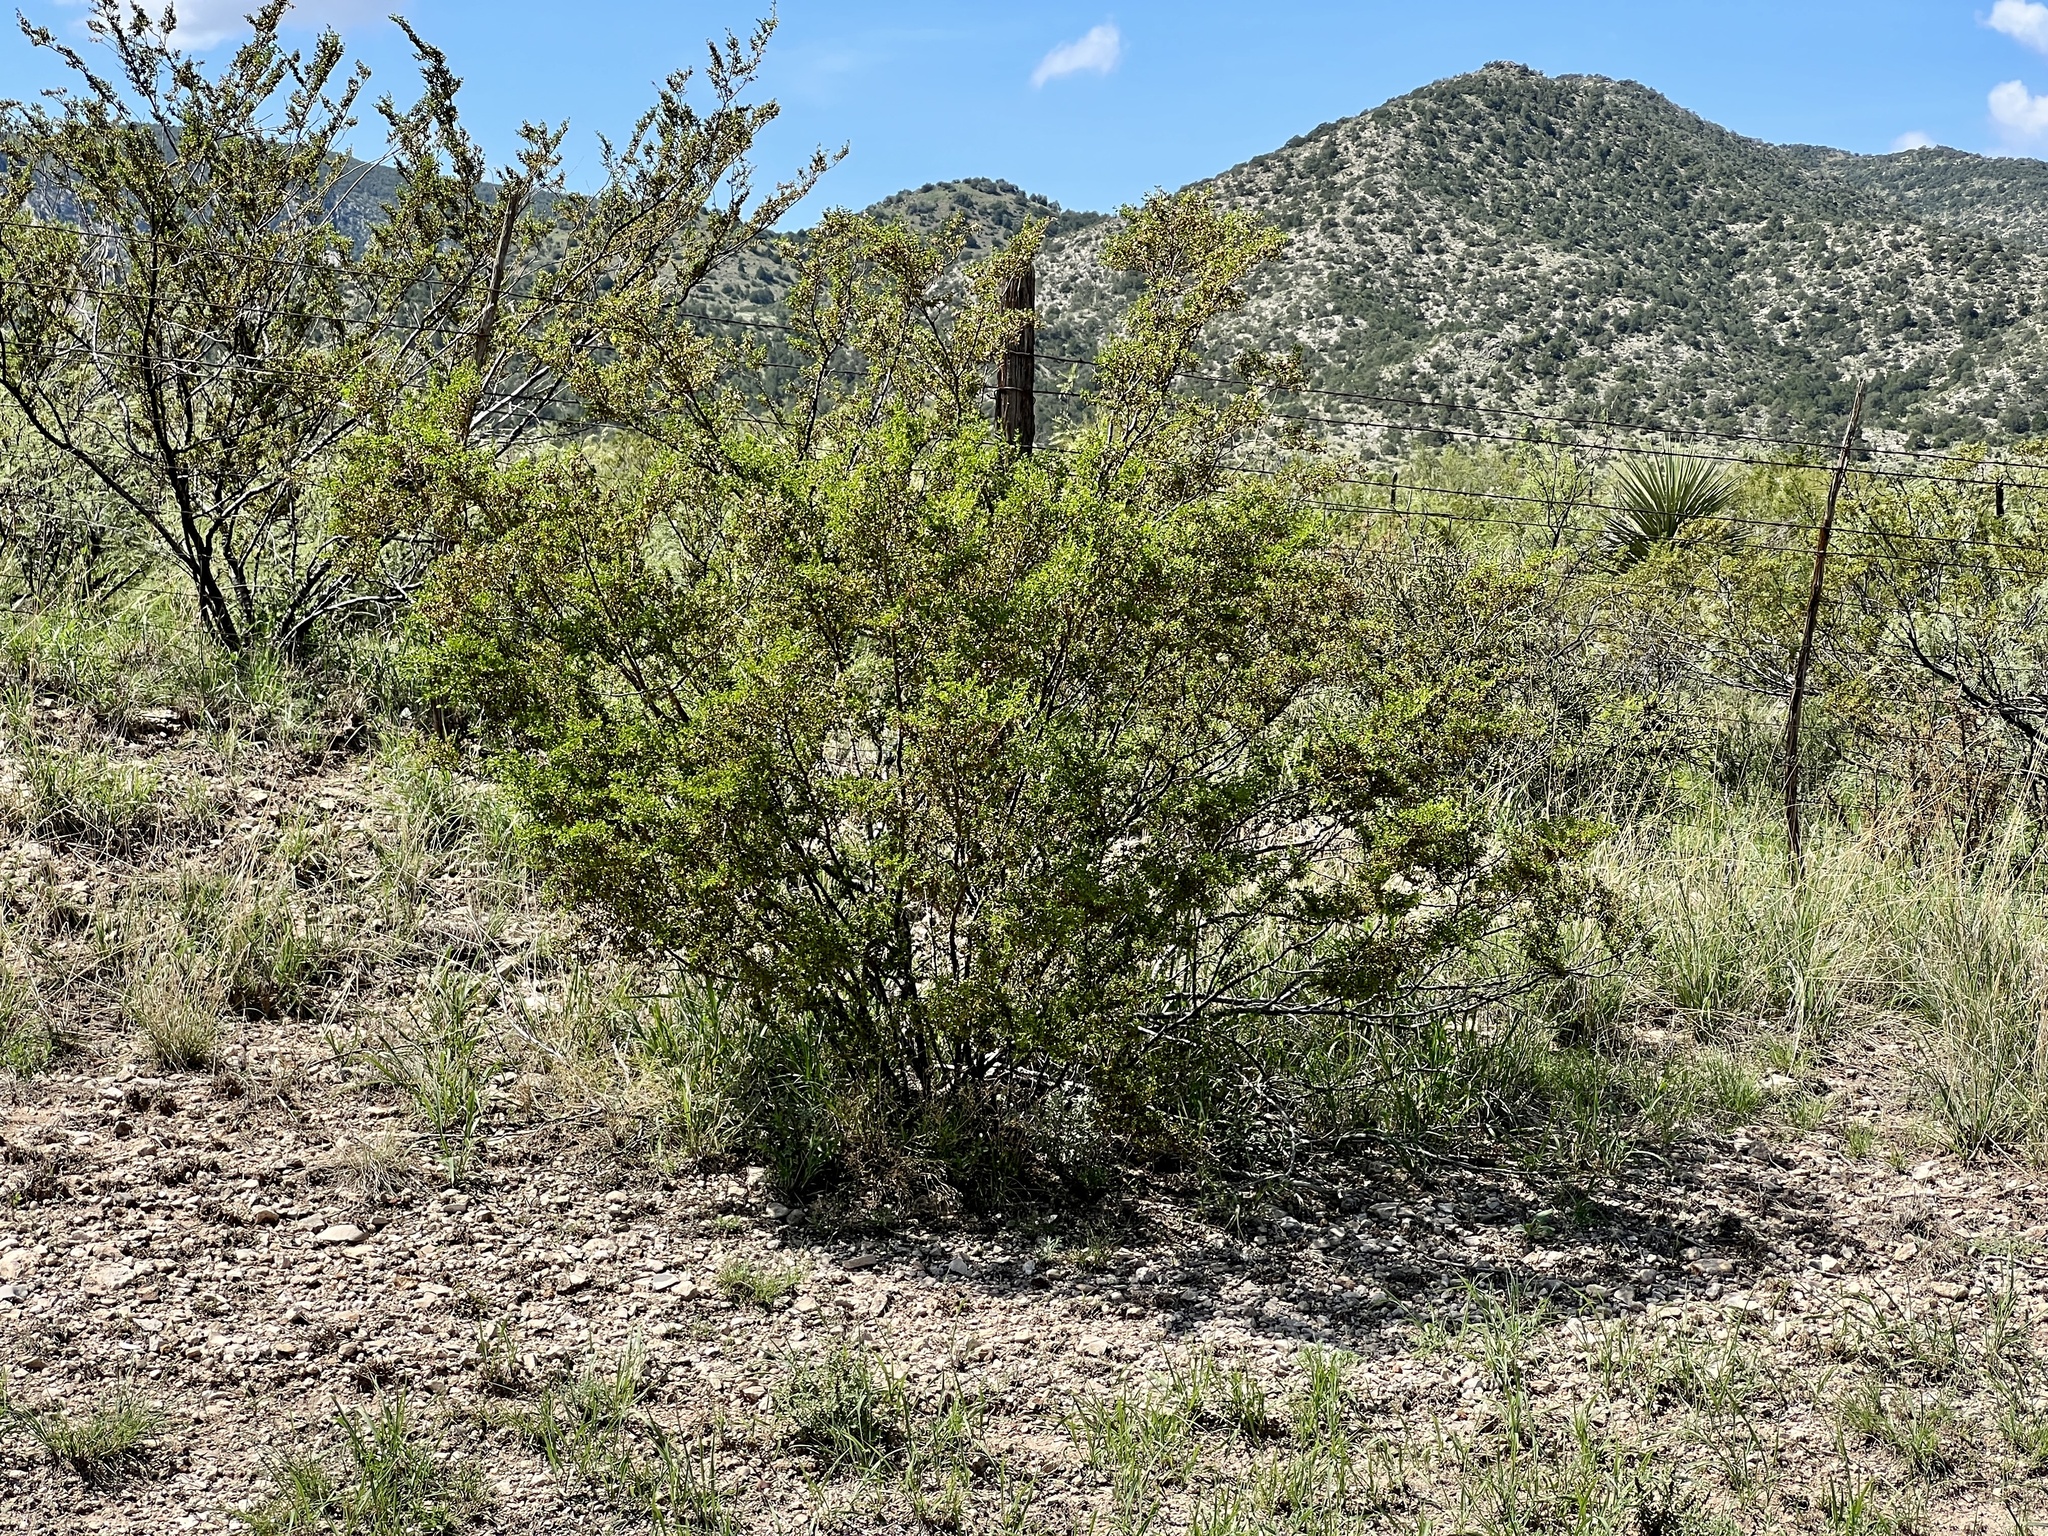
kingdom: Plantae
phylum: Tracheophyta
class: Magnoliopsida
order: Zygophyllales
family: Zygophyllaceae
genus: Larrea
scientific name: Larrea tridentata
